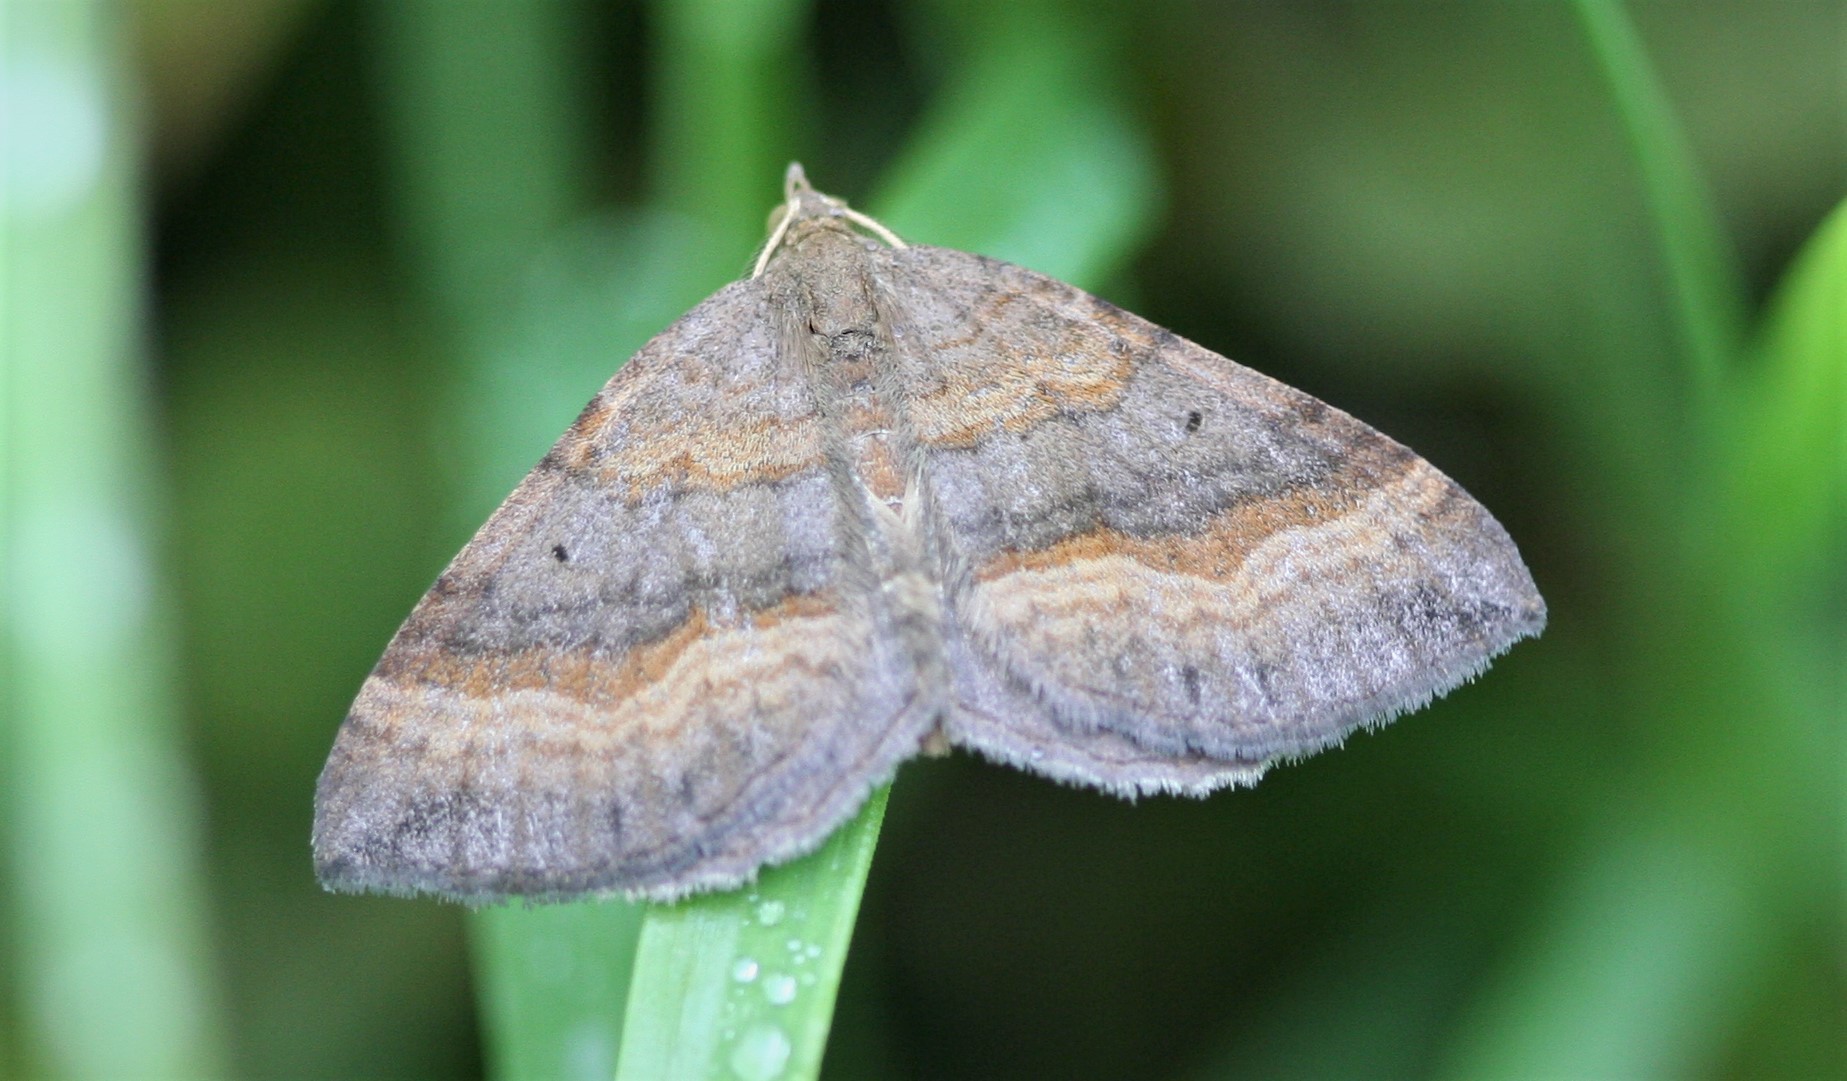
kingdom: Animalia
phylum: Arthropoda
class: Insecta
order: Lepidoptera
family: Geometridae
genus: Scotopteryx
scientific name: Scotopteryx chenopodiata
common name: Shaded broad-bar
